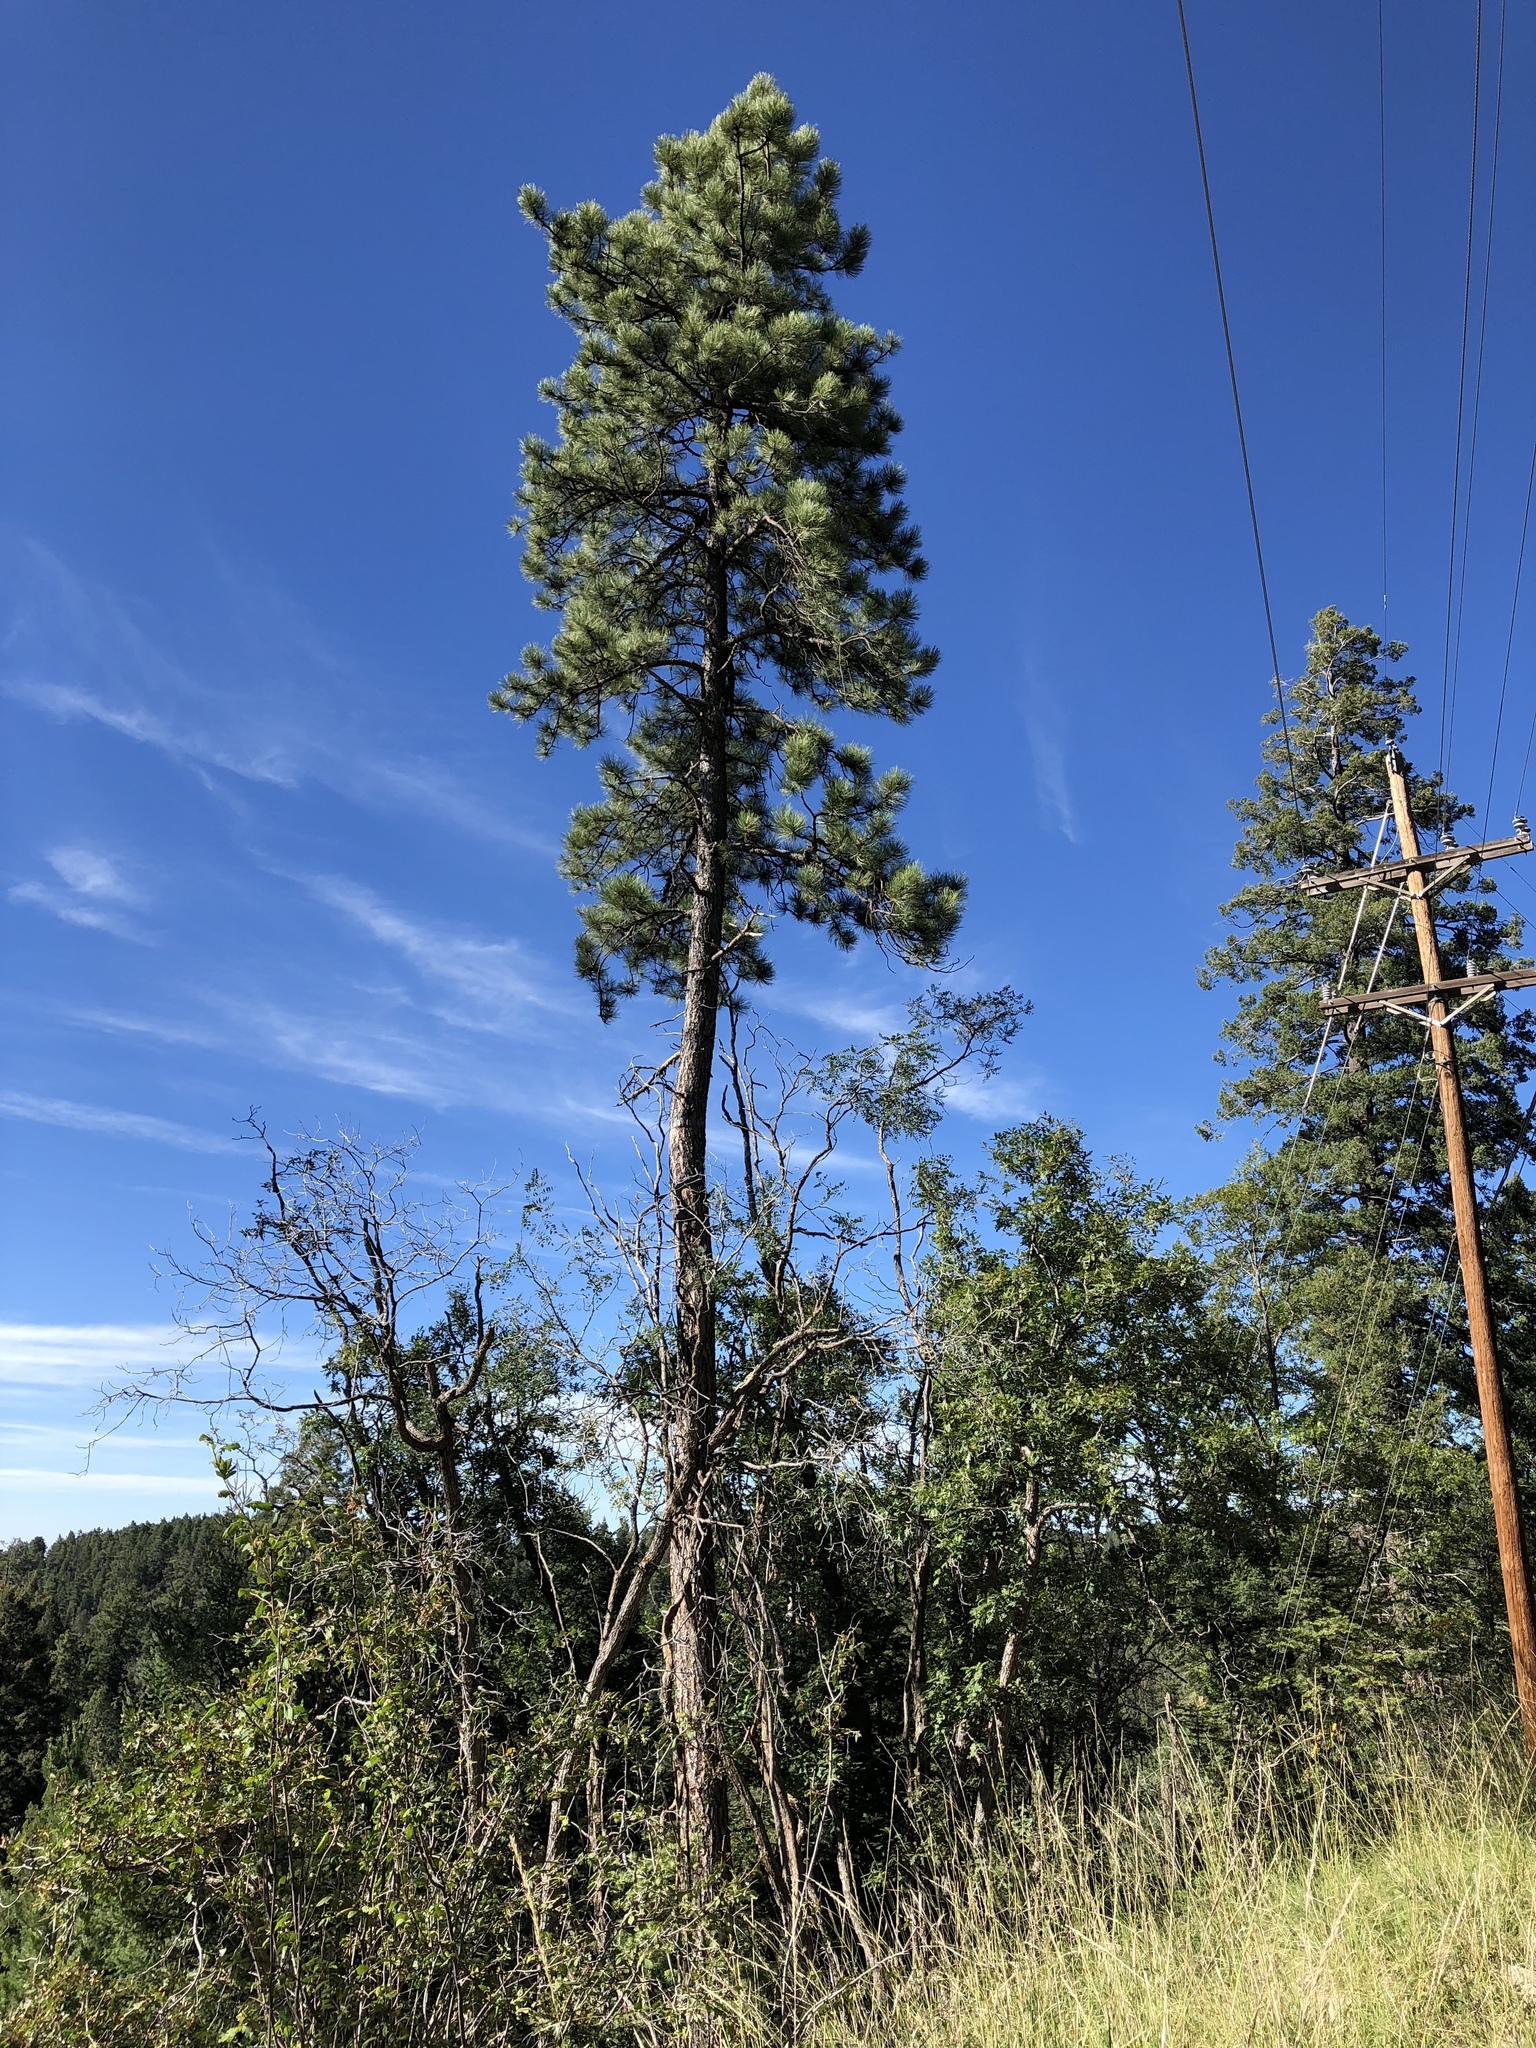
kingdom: Plantae
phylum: Tracheophyta
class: Pinopsida
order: Pinales
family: Pinaceae
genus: Pinus
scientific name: Pinus ponderosa
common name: Western yellow-pine
